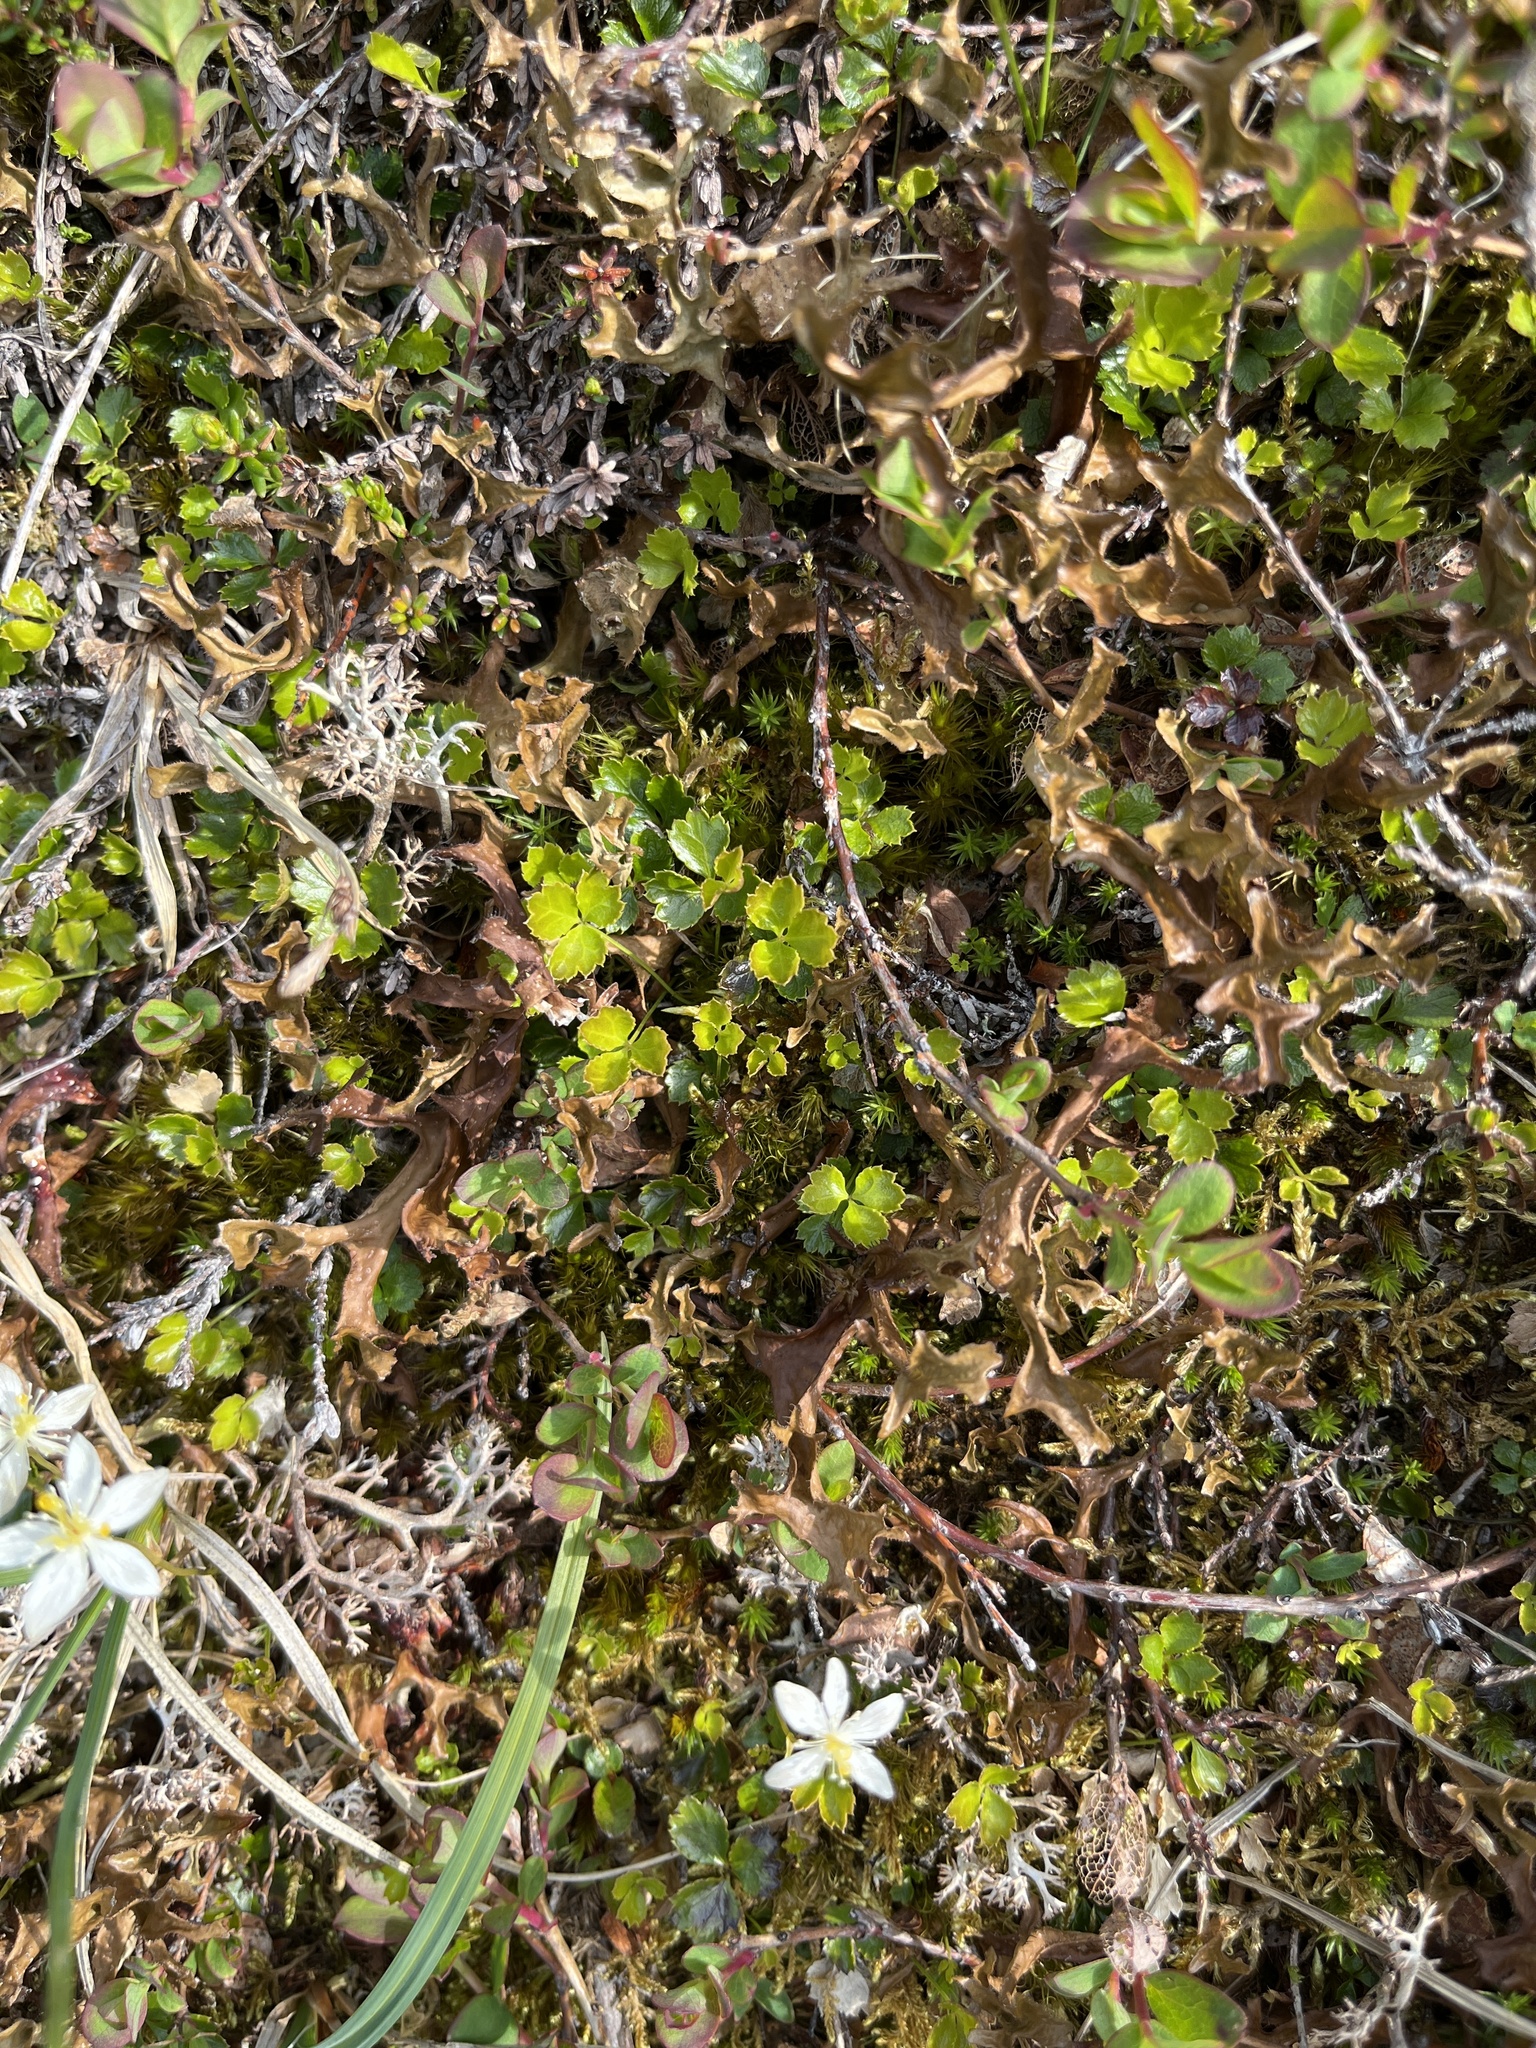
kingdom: Plantae
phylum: Tracheophyta
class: Magnoliopsida
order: Ranunculales
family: Ranunculaceae
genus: Coptis
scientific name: Coptis trifolia
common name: Canker-root
